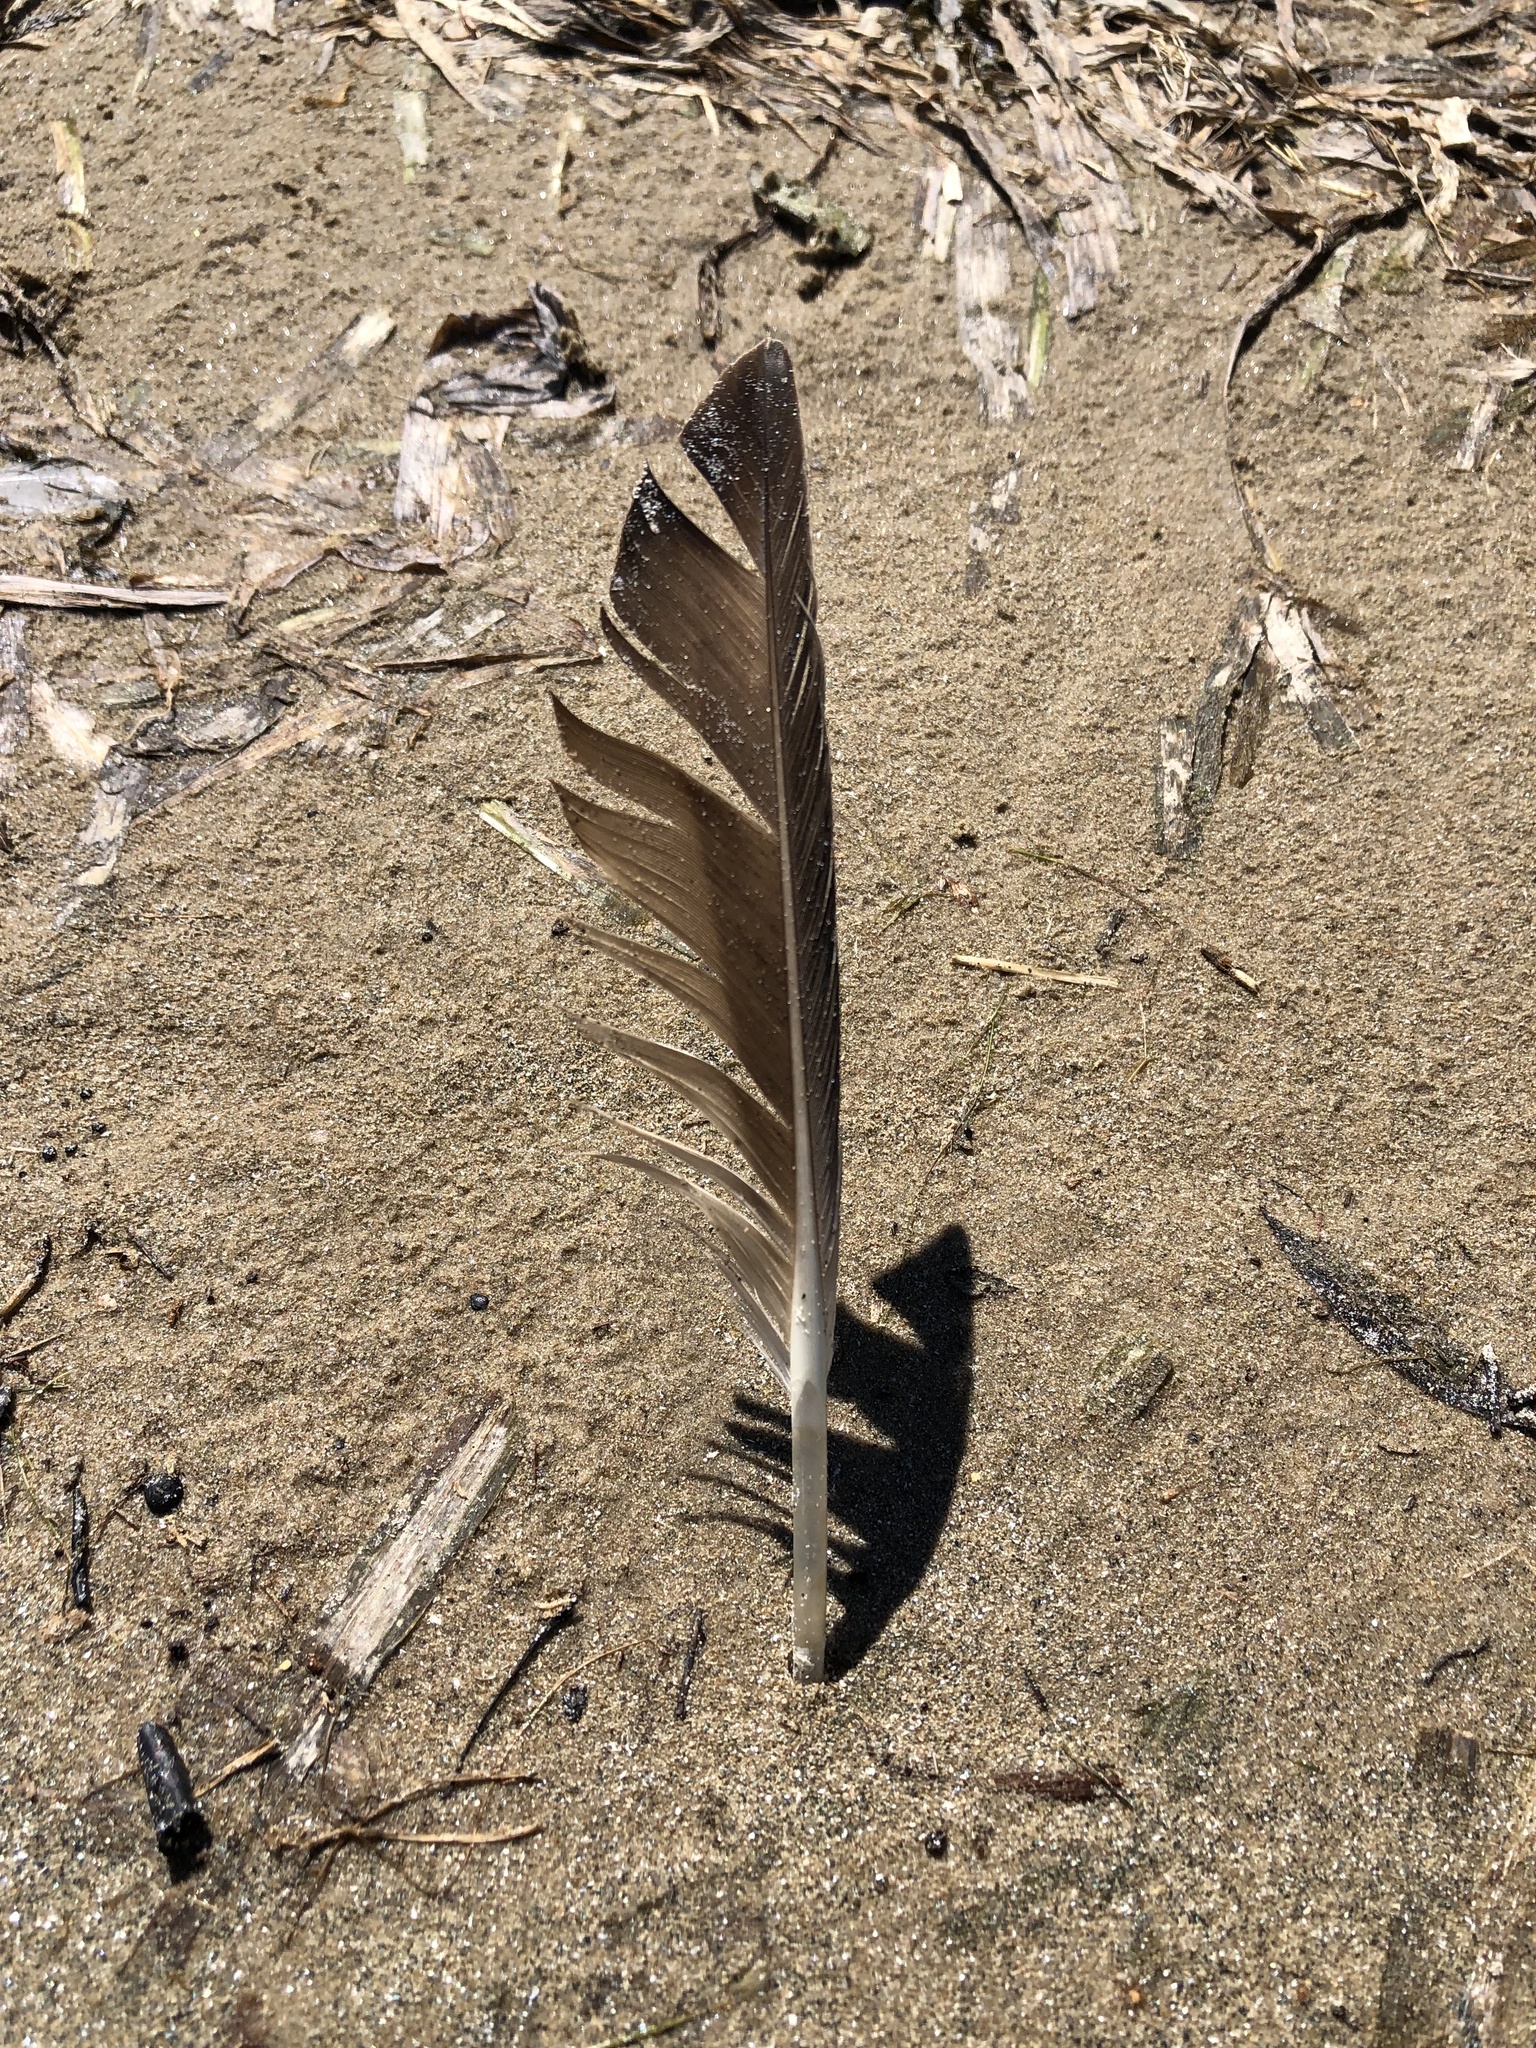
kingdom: Animalia
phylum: Chordata
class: Aves
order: Anseriformes
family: Anatidae
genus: Anas
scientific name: Anas platyrhynchos
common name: Mallard
